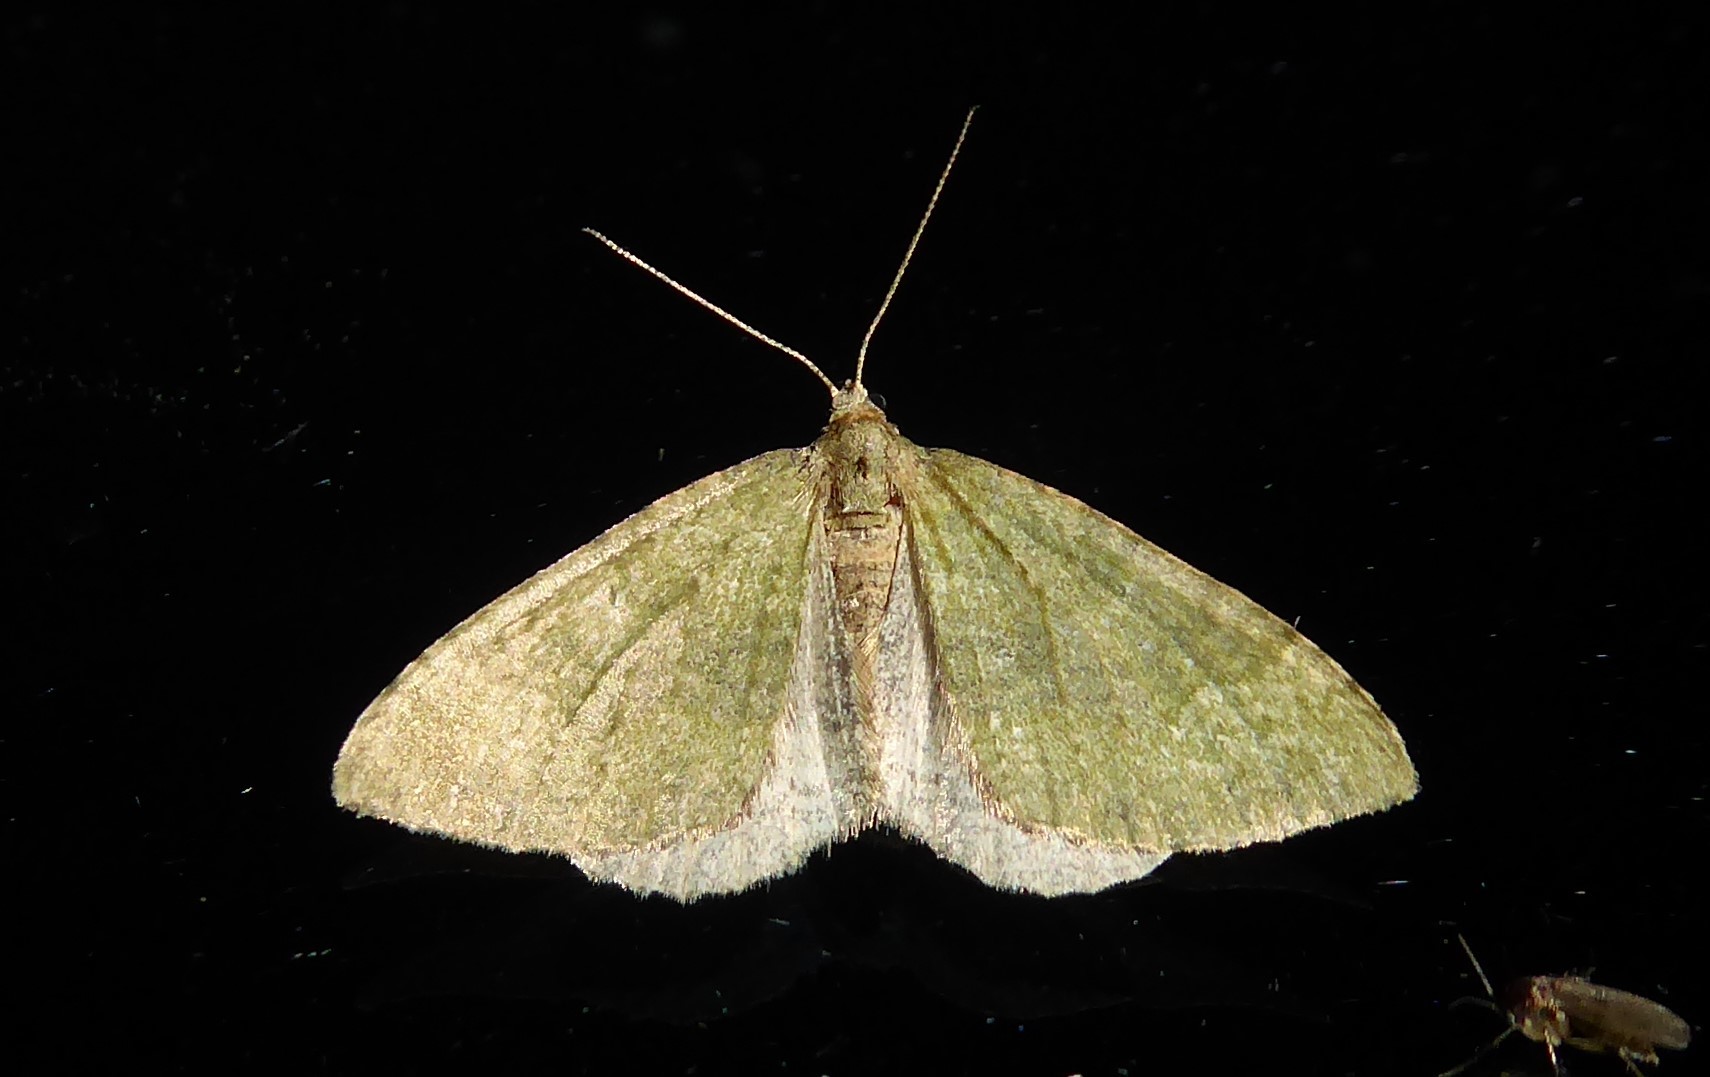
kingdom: Animalia
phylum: Arthropoda
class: Insecta
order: Lepidoptera
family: Geometridae
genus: Epyaxa
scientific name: Epyaxa rosearia
